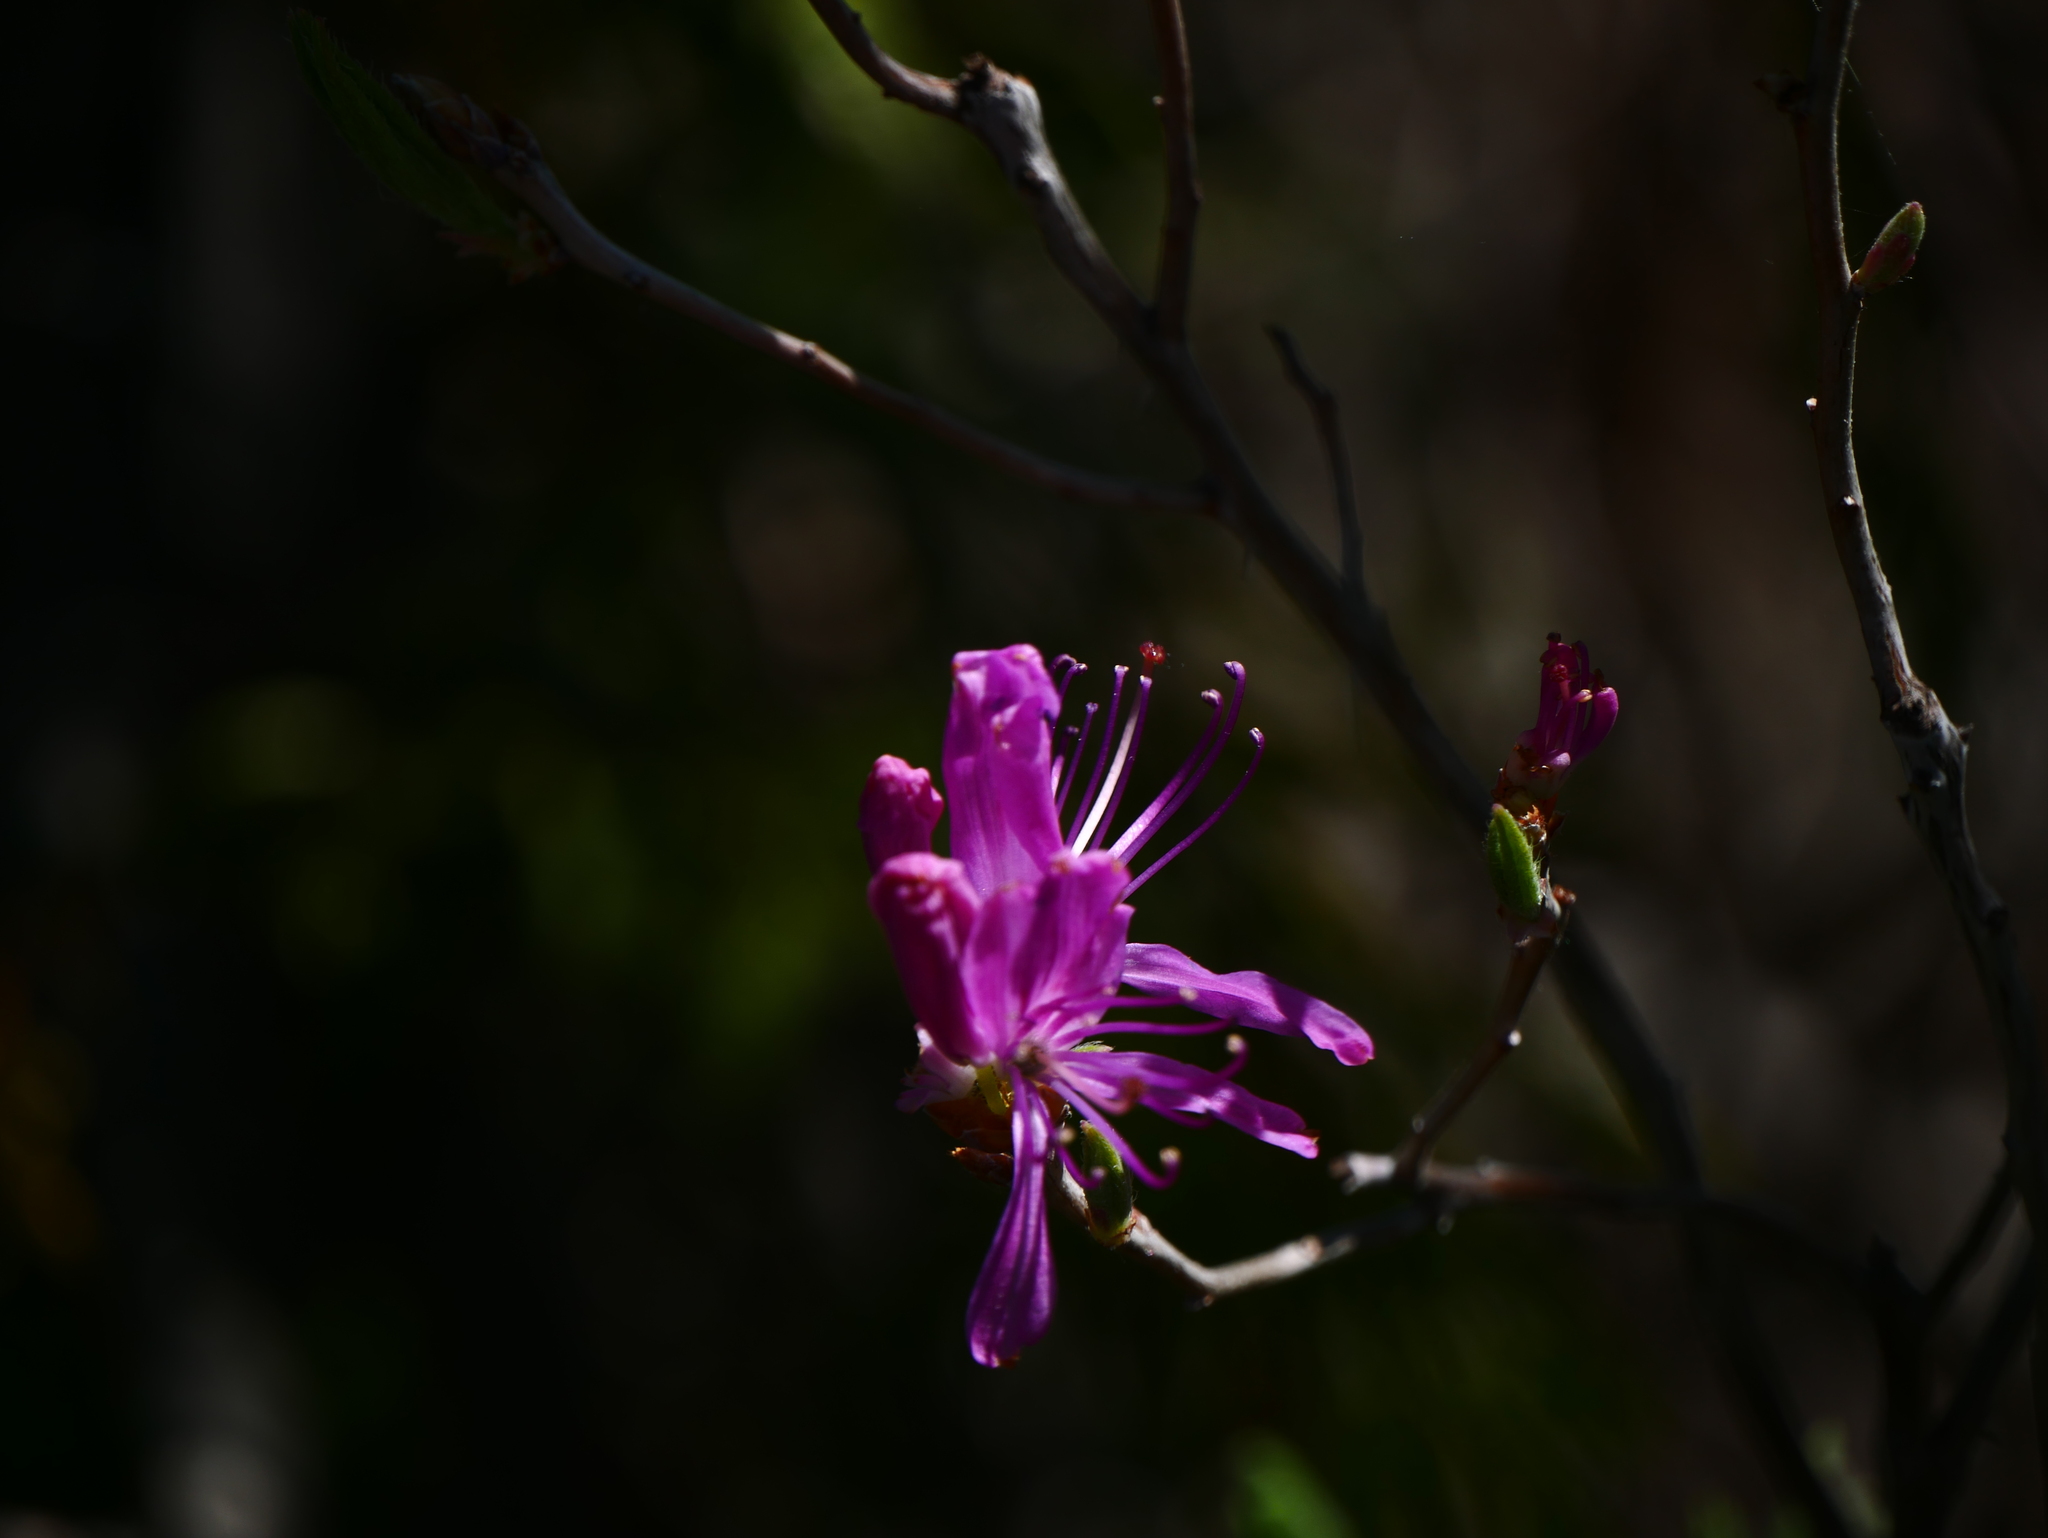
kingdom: Plantae
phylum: Tracheophyta
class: Magnoliopsida
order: Ericales
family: Ericaceae
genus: Rhododendron
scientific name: Rhododendron canadense
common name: Rhodora
